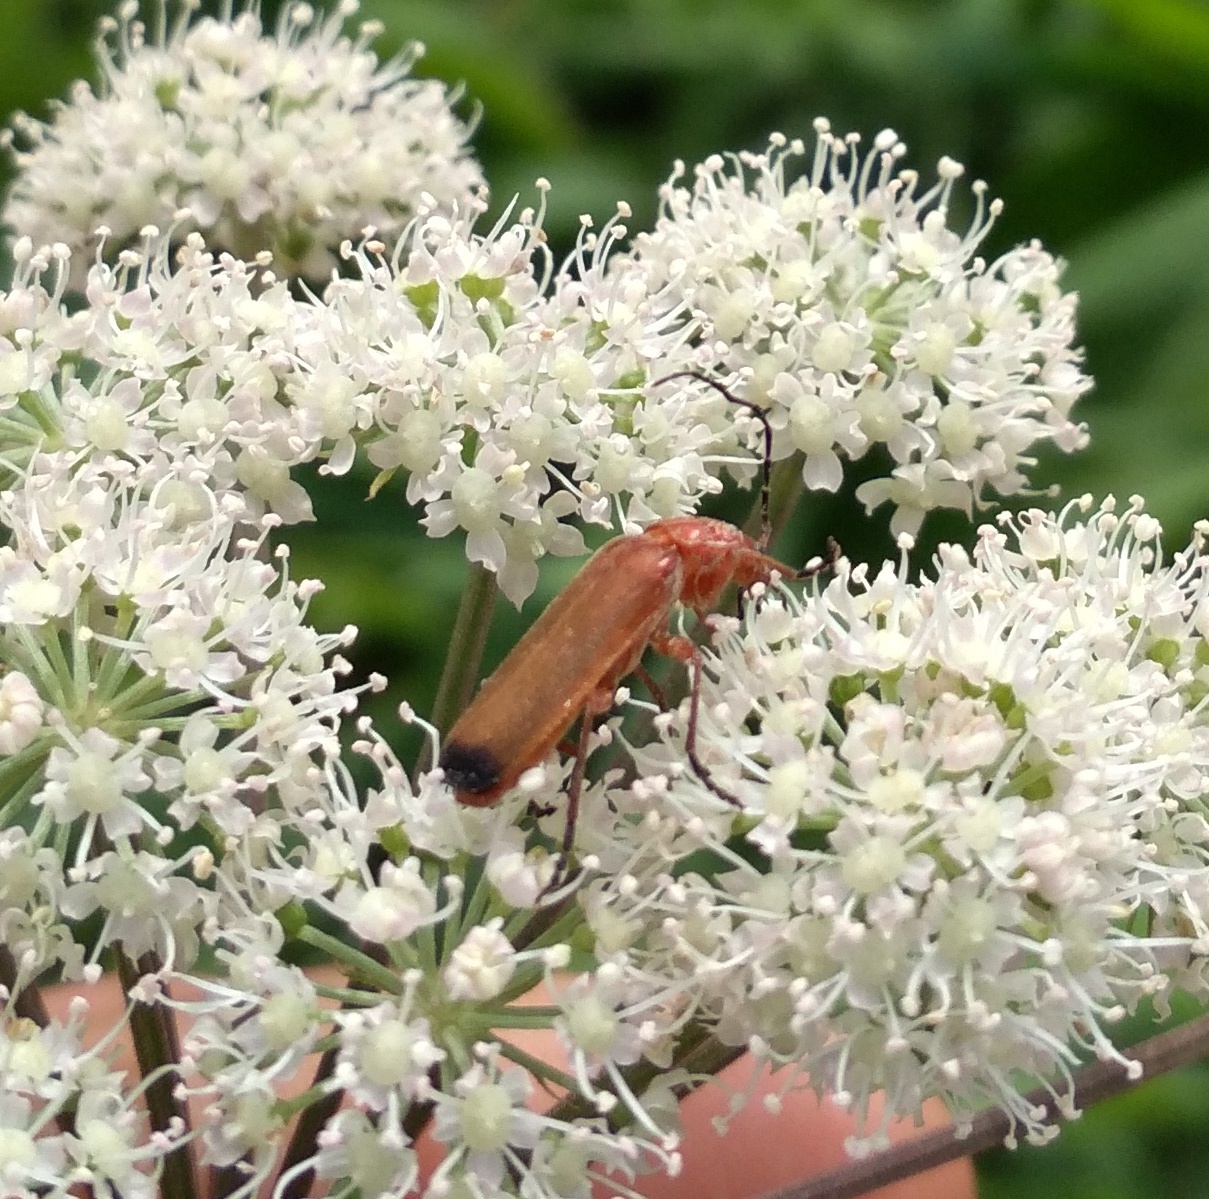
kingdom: Animalia
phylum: Arthropoda
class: Insecta
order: Coleoptera
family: Cantharidae
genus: Rhagonycha
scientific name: Rhagonycha fulva
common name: Common red soldier beetle
